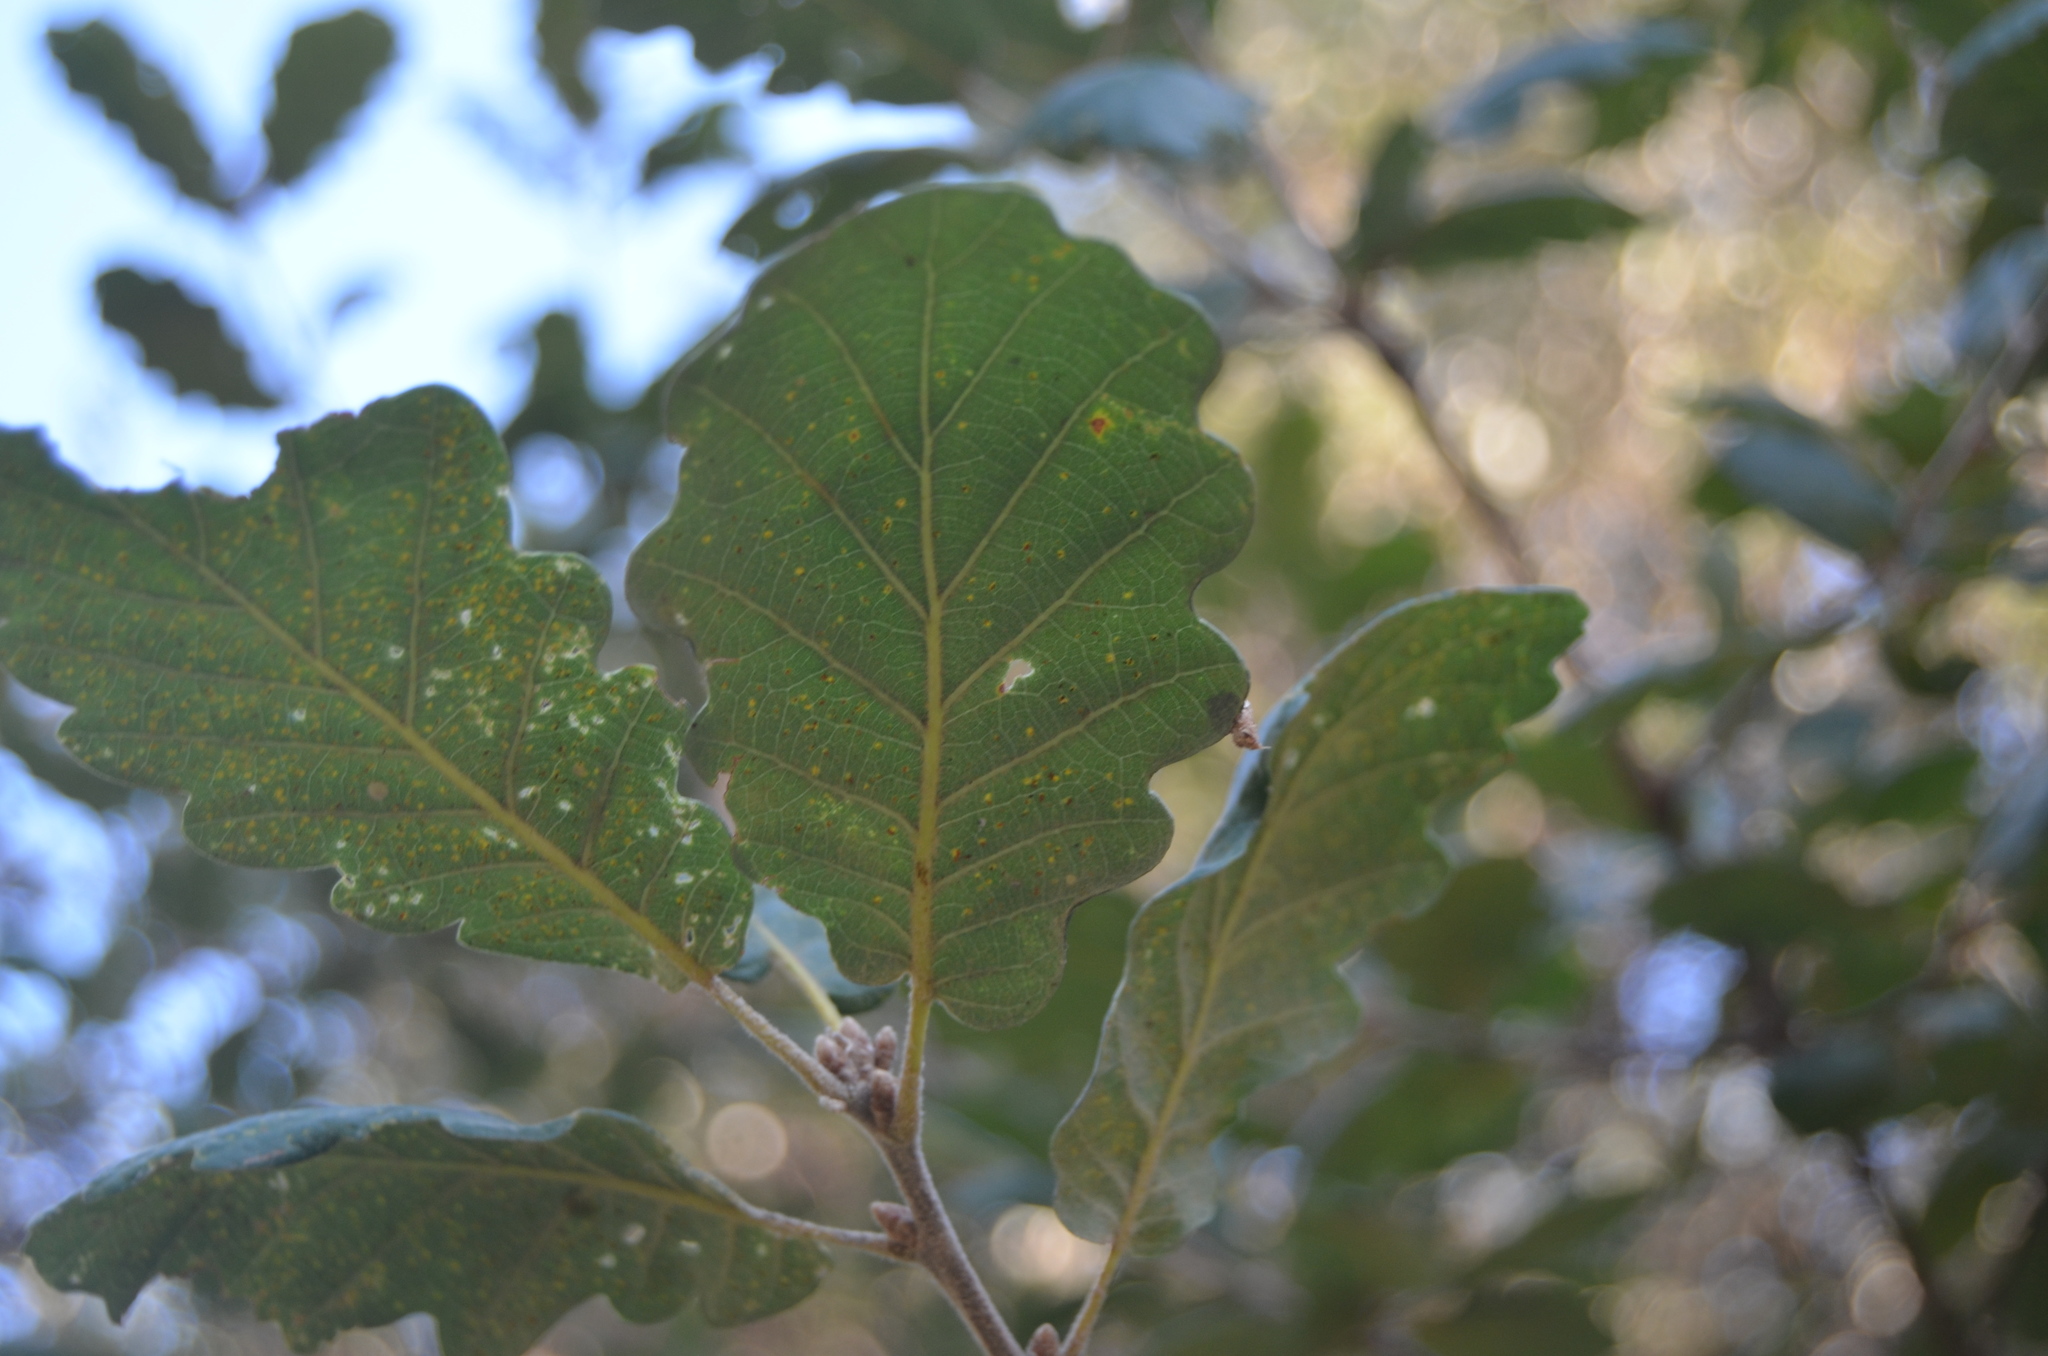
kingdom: Plantae
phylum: Tracheophyta
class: Magnoliopsida
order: Fagales
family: Fagaceae
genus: Quercus
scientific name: Quercus pubescens
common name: Downy oak
